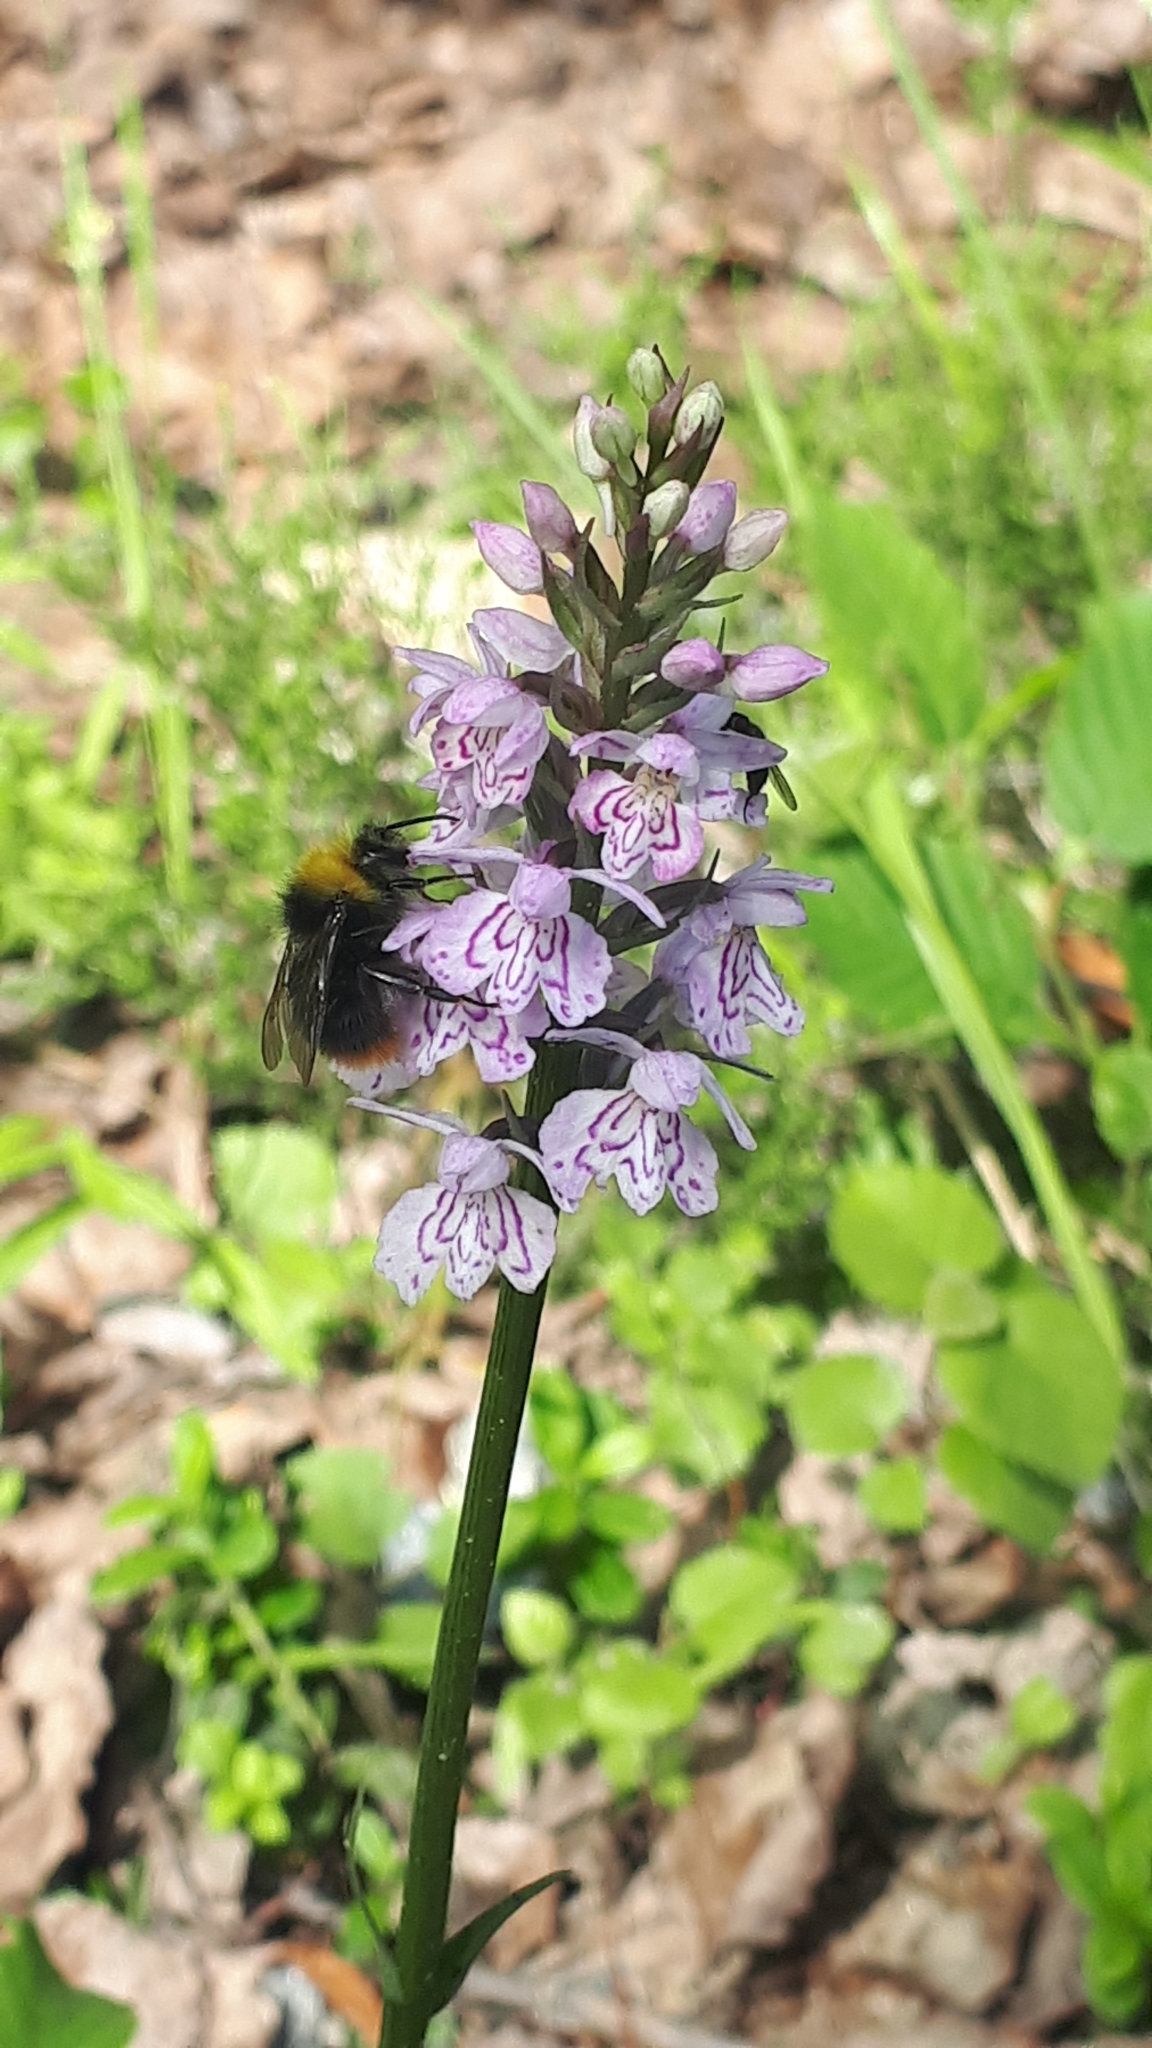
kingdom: Plantae
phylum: Tracheophyta
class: Liliopsida
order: Asparagales
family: Orchidaceae
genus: Dactylorhiza
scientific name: Dactylorhiza maculata
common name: Heath spotted-orchid
